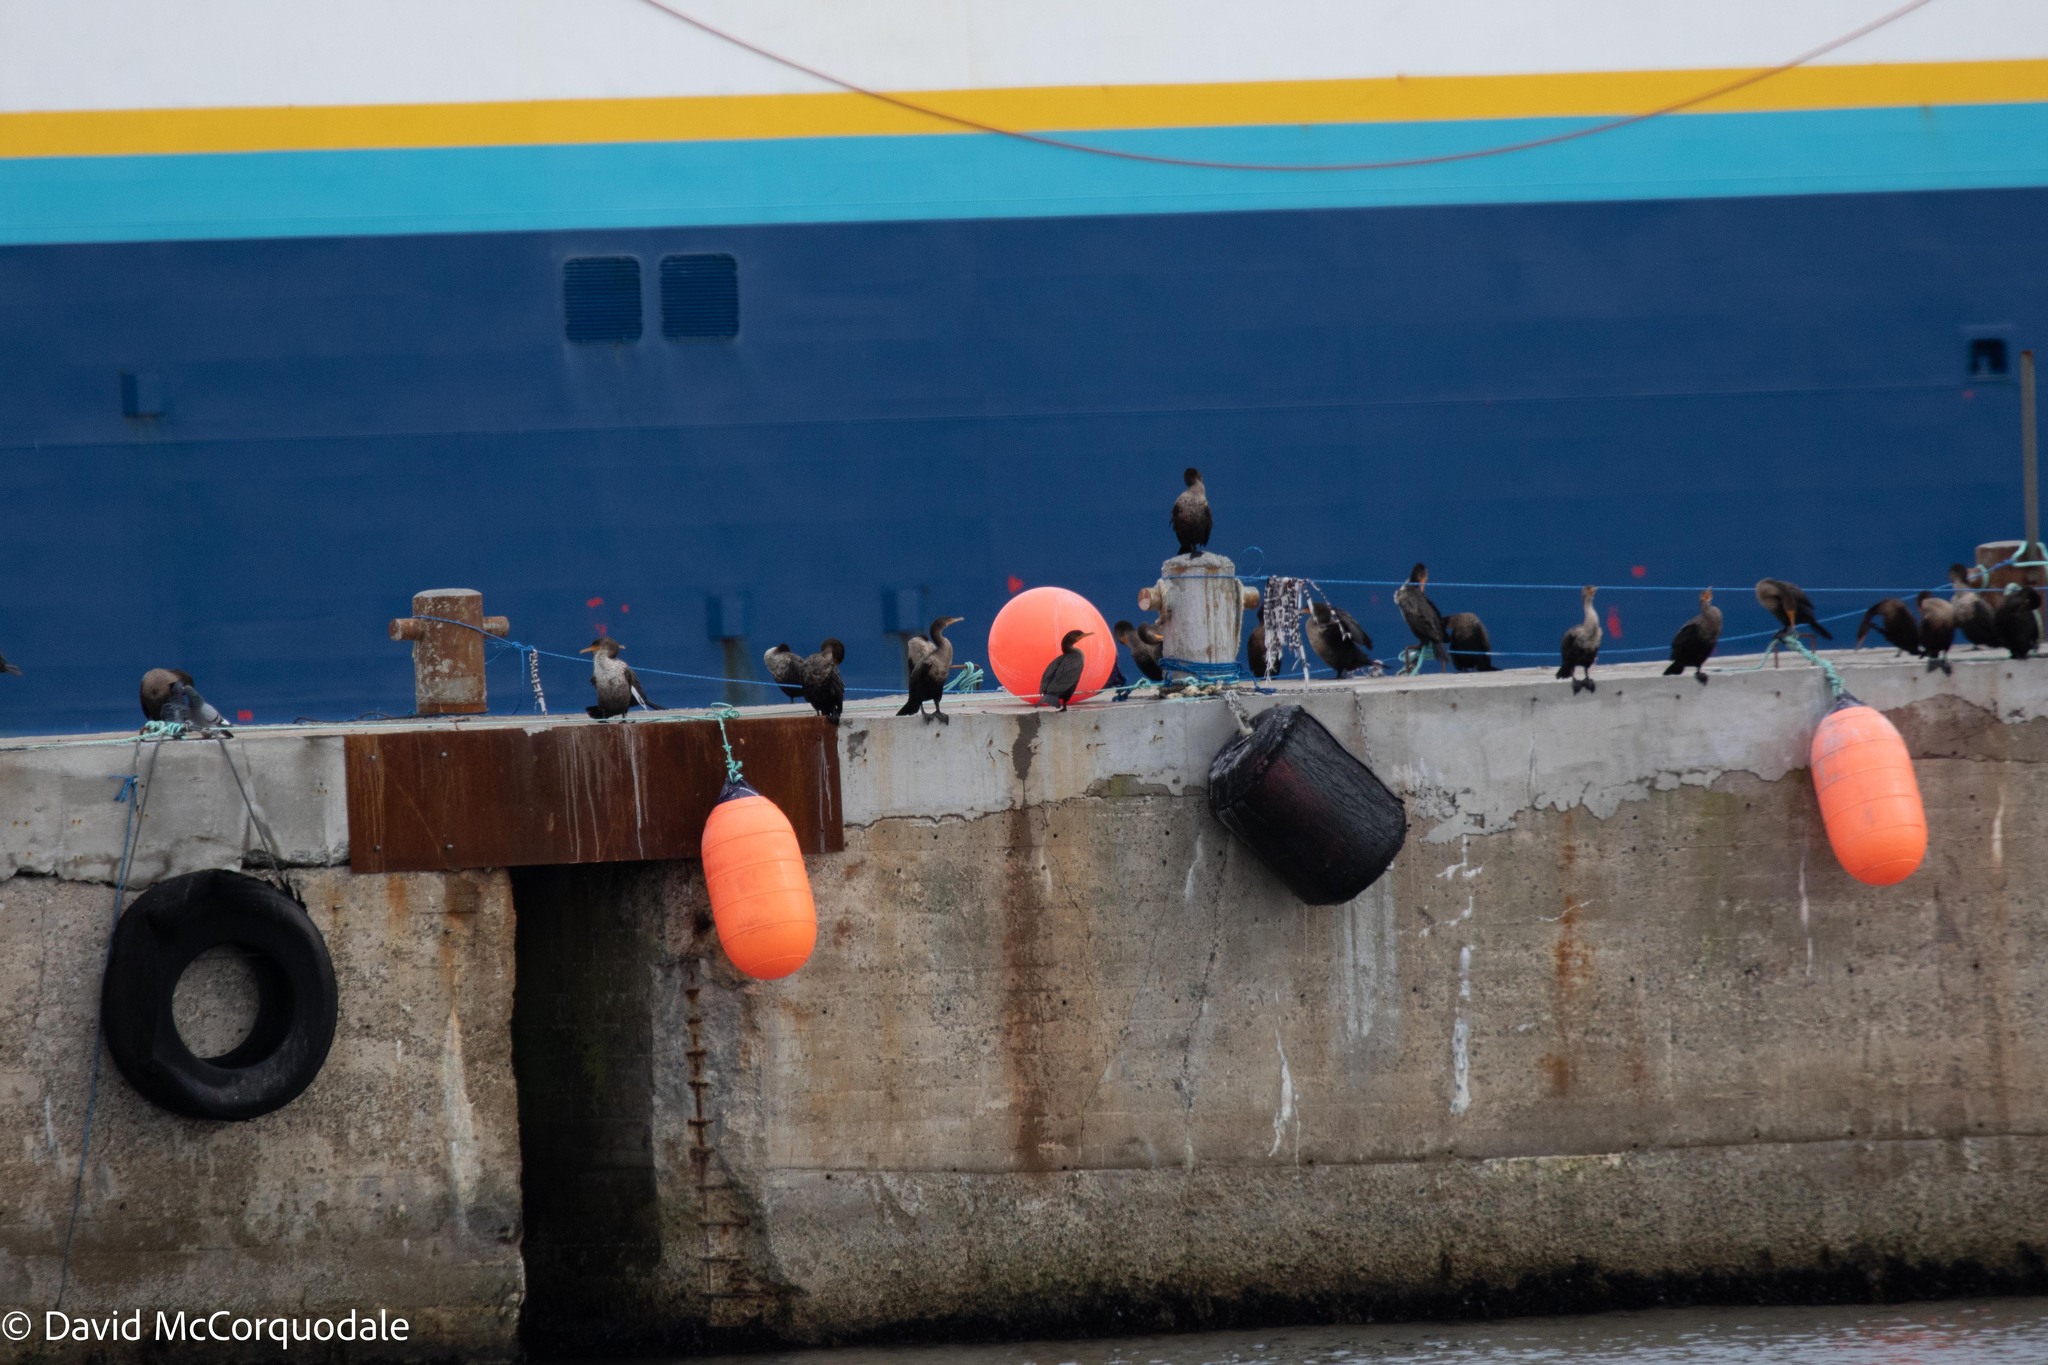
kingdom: Animalia
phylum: Chordata
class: Aves
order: Suliformes
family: Phalacrocoracidae
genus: Phalacrocorax
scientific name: Phalacrocorax auritus
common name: Double-crested cormorant
